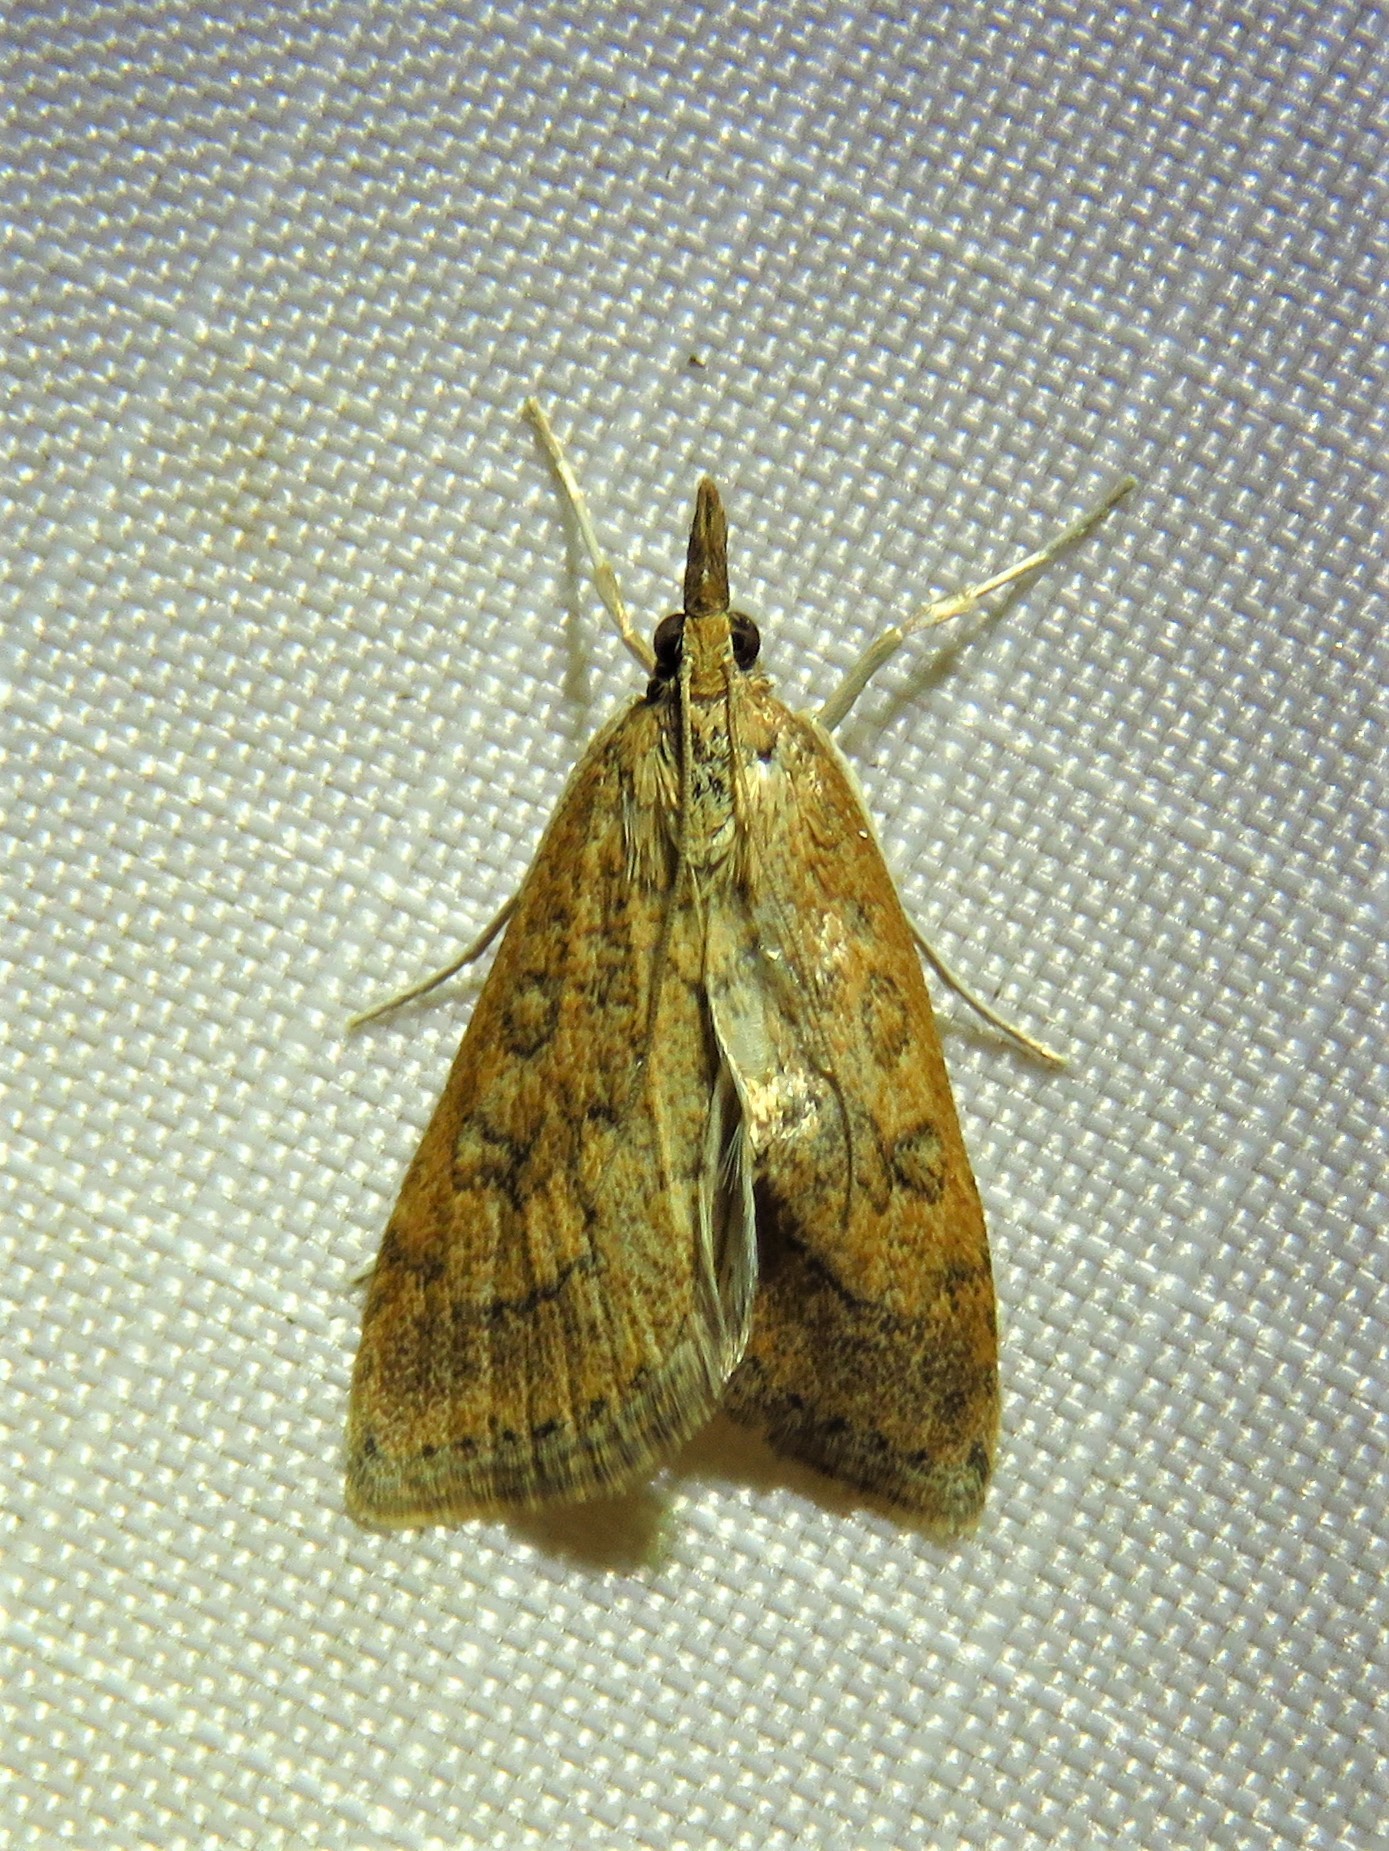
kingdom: Animalia
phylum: Arthropoda
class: Insecta
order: Lepidoptera
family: Crambidae
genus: Udea
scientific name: Udea rubigalis
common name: Celery leaftier moth
